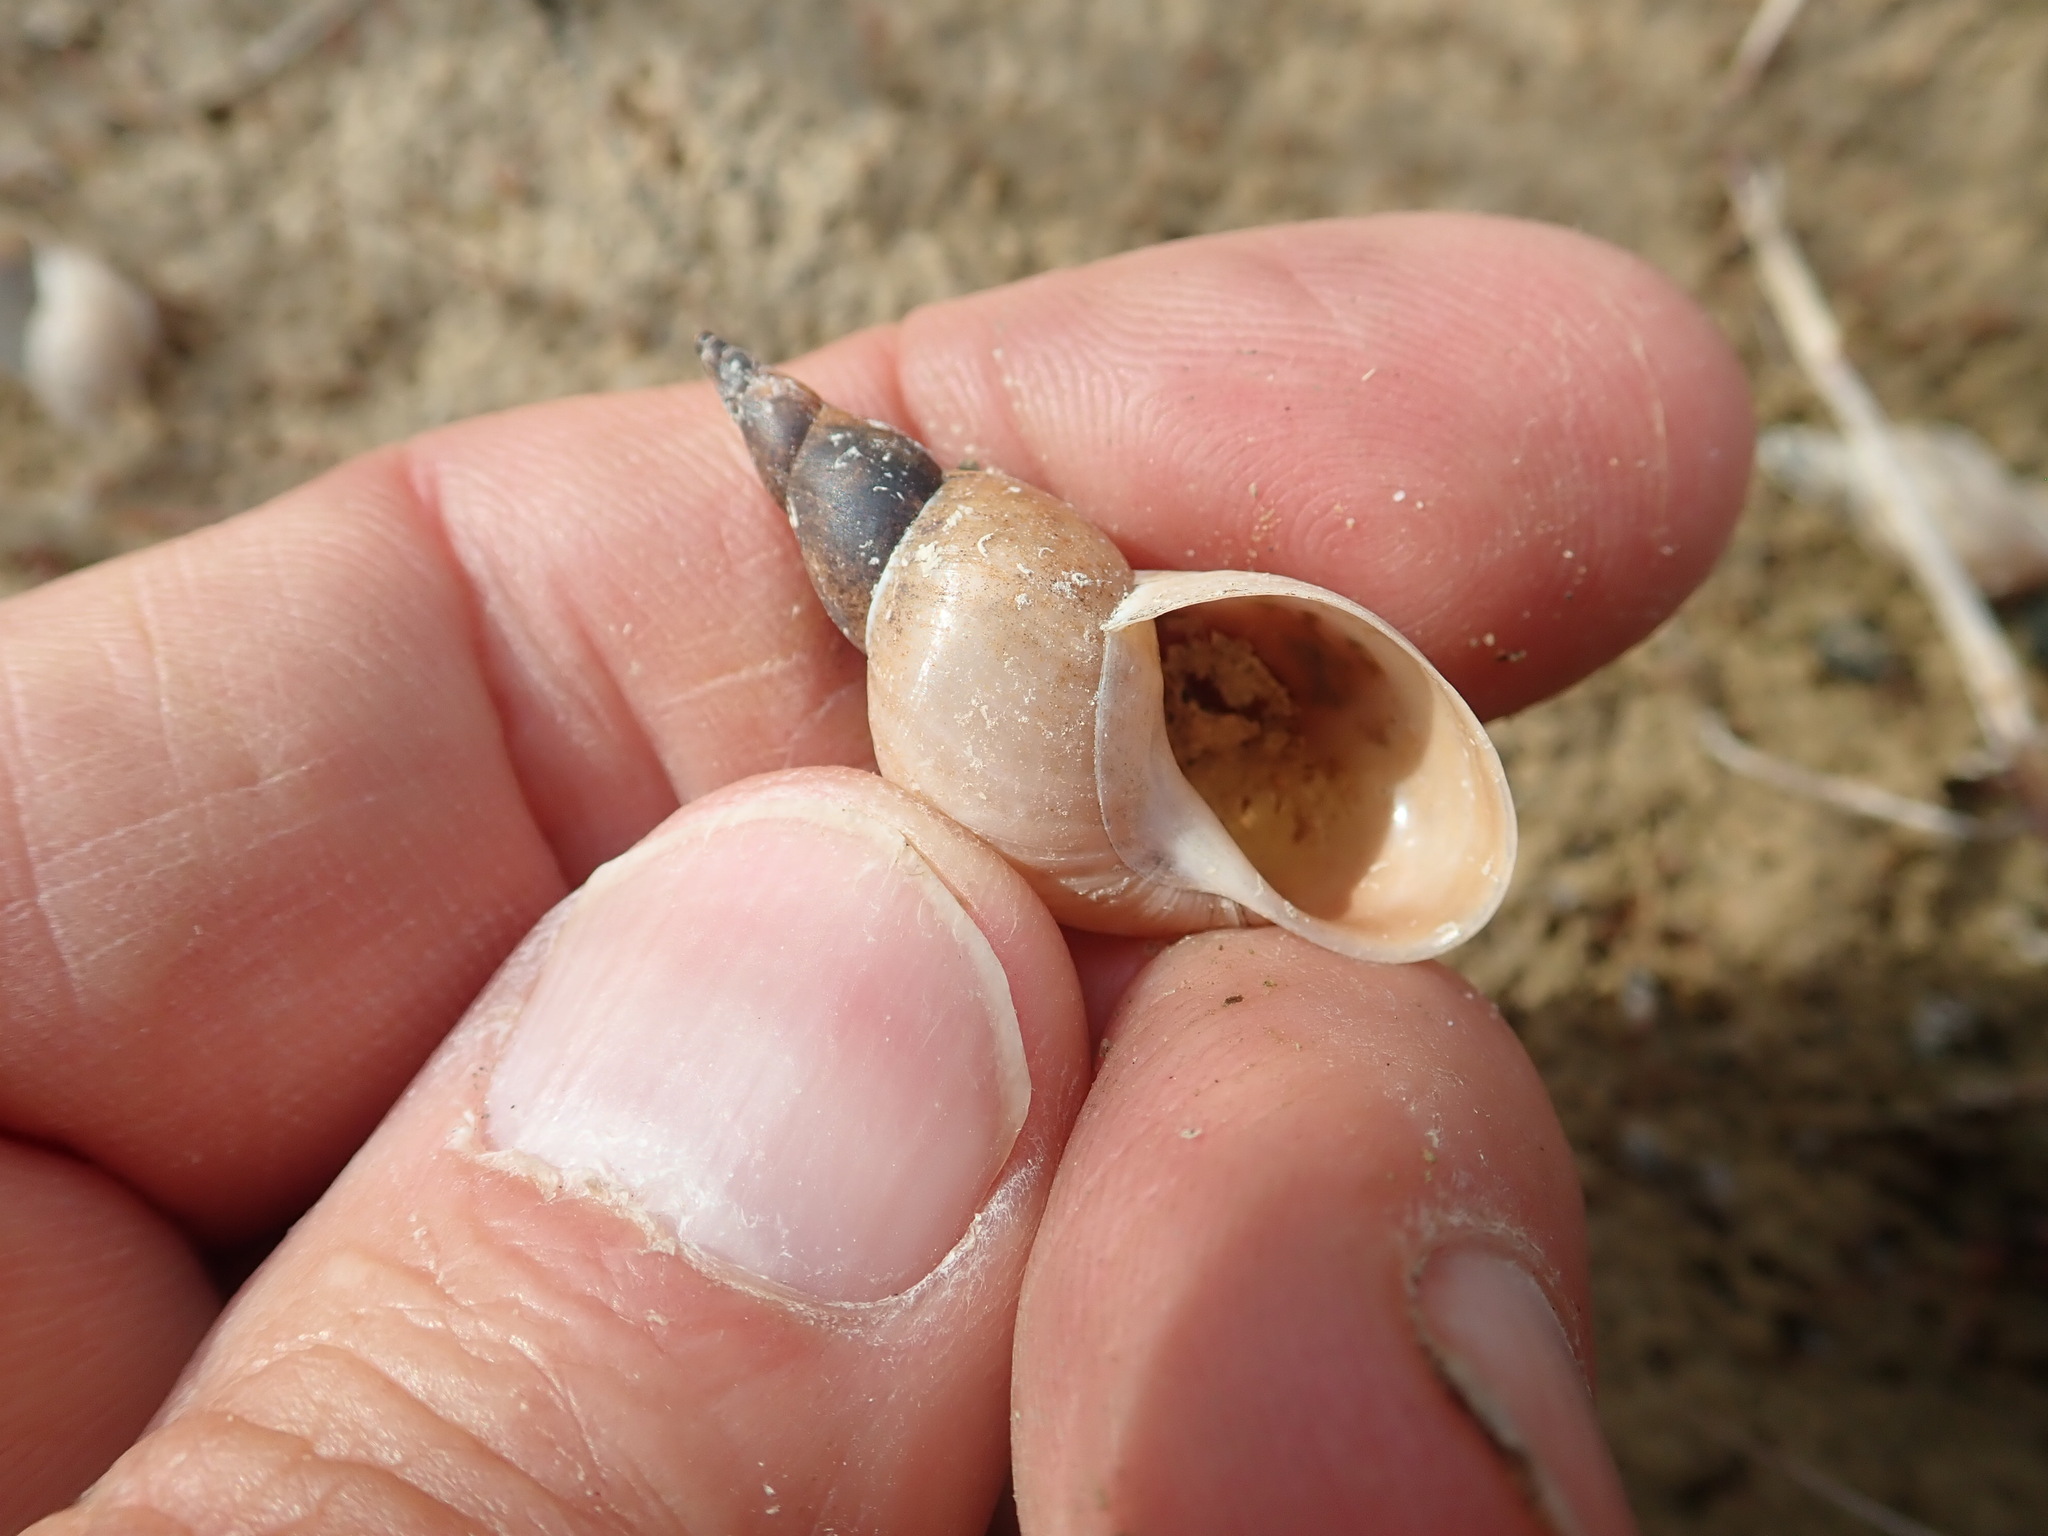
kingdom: Animalia
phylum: Mollusca
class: Gastropoda
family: Lymnaeidae
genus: Lymnaea
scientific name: Lymnaea stagnalis
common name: Great pond snail
